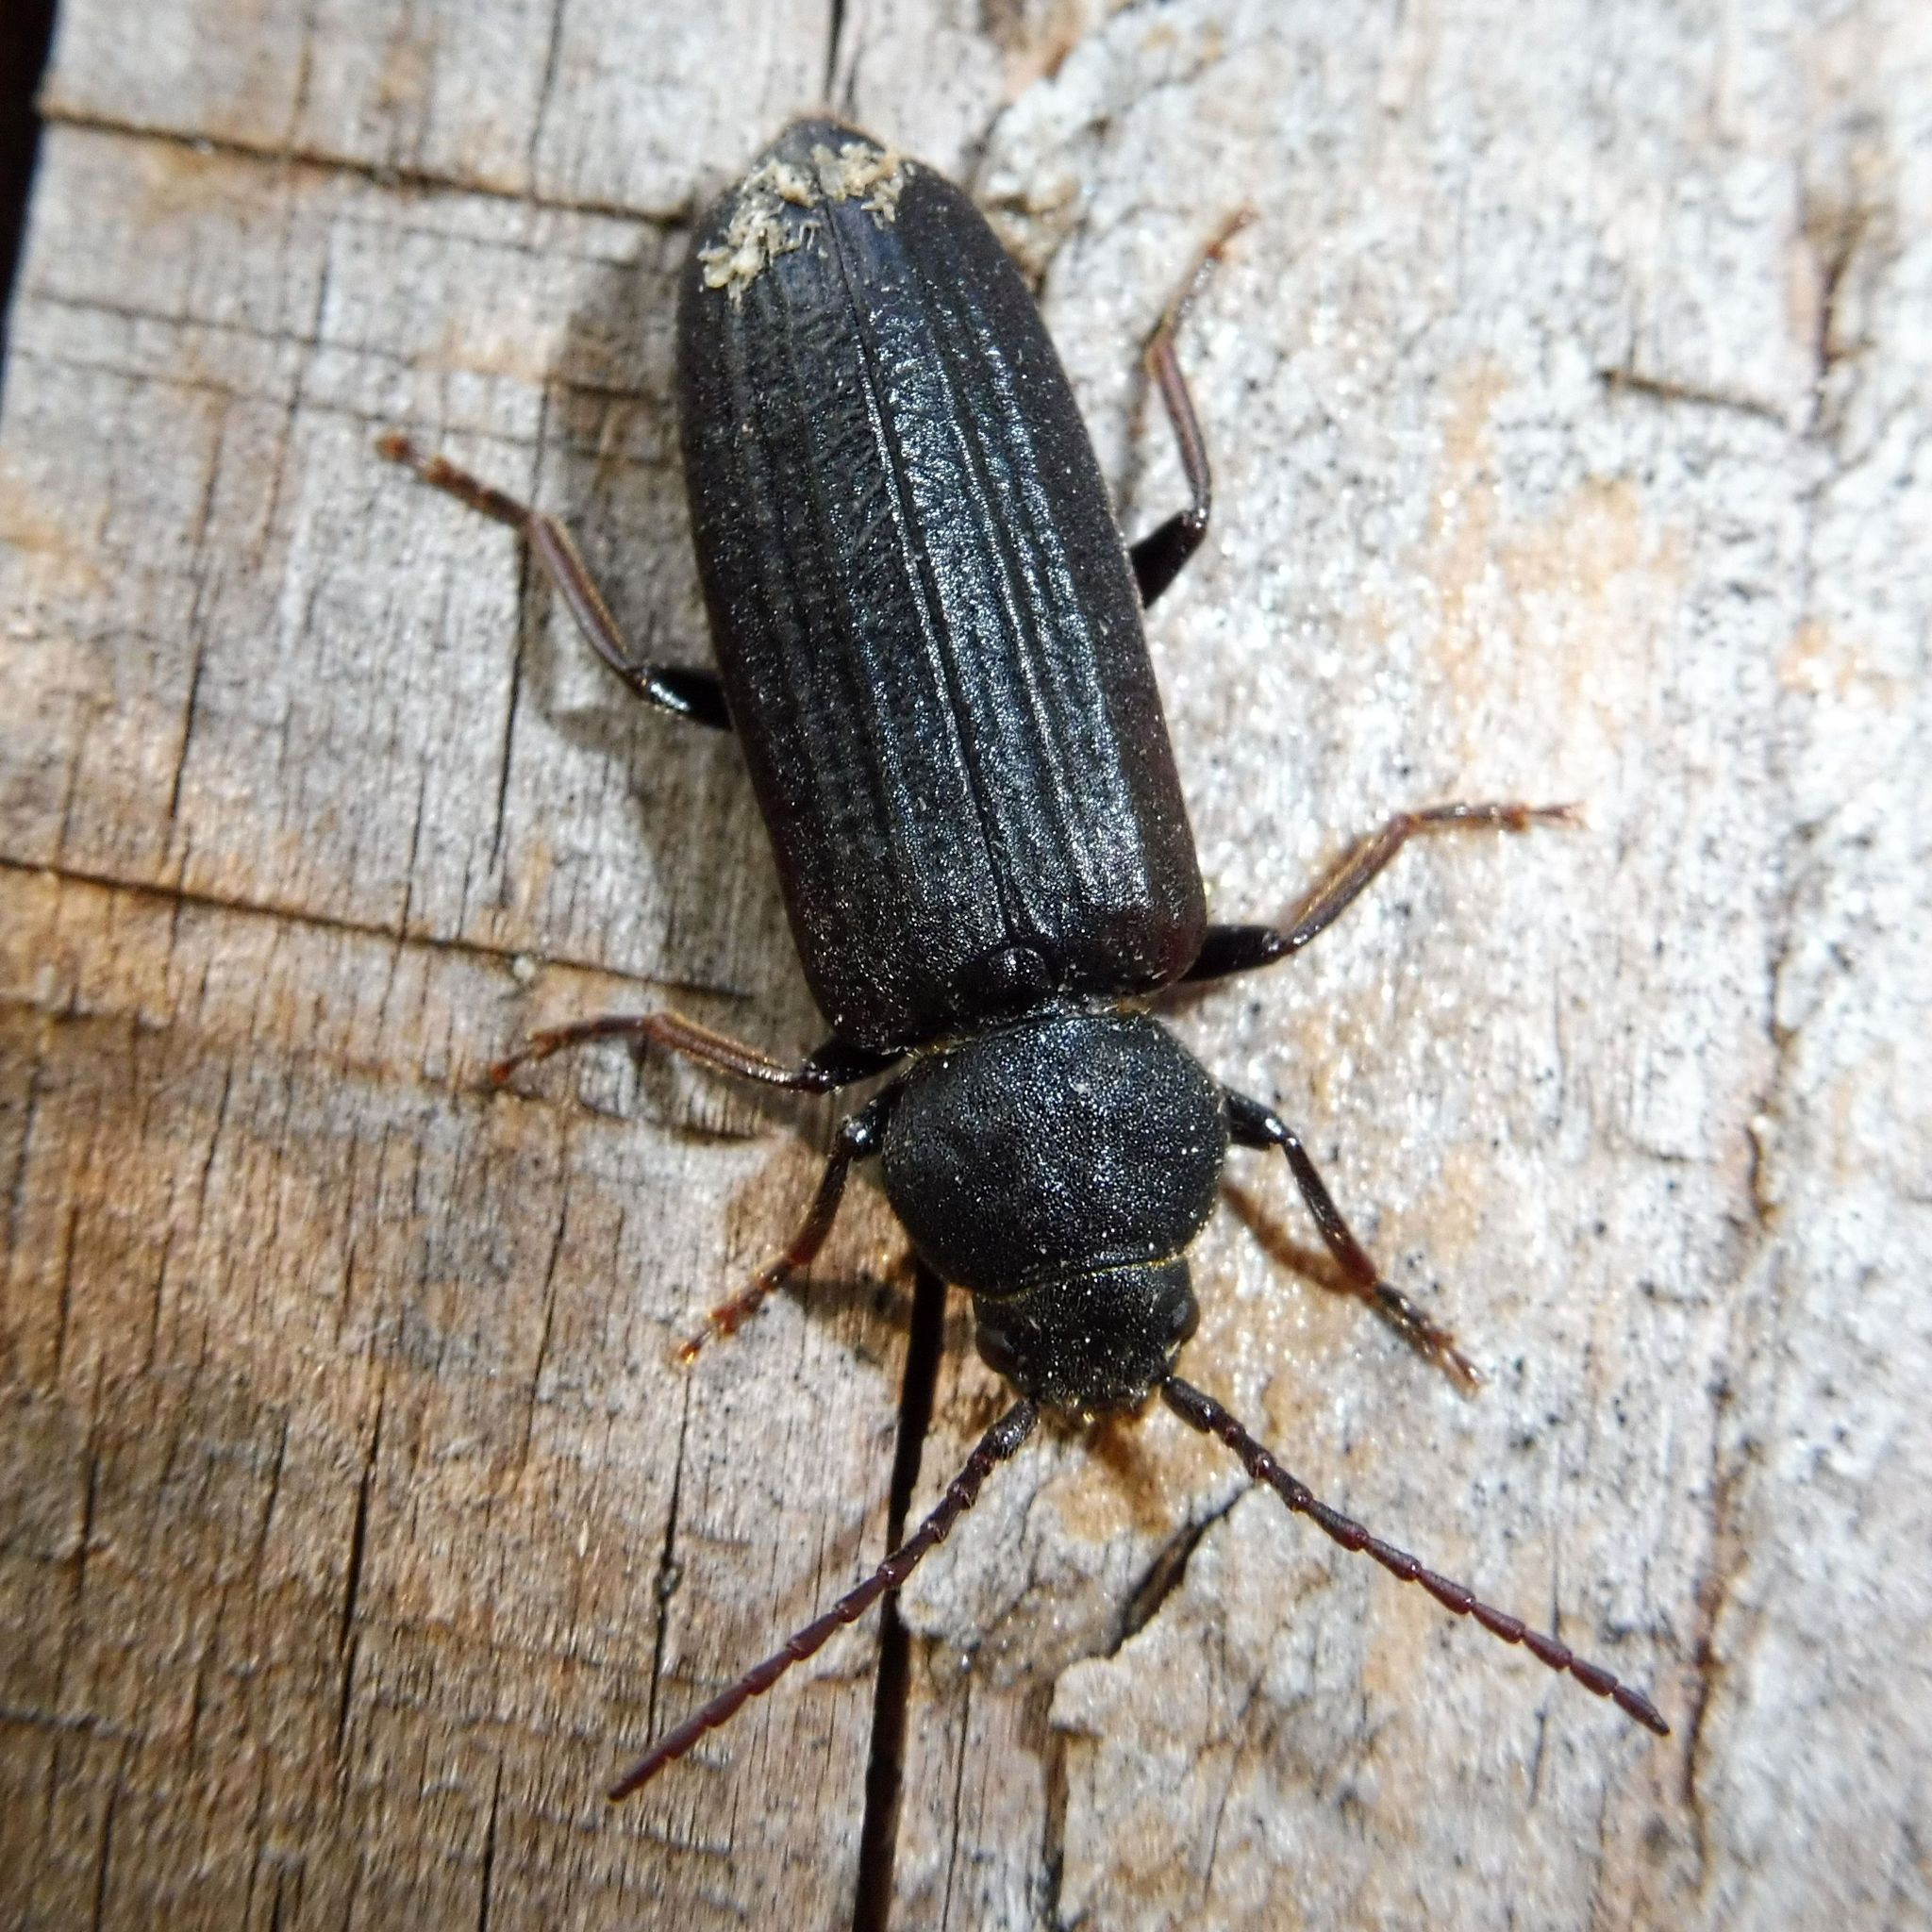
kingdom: Animalia
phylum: Arthropoda
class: Insecta
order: Coleoptera
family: Cerambycidae
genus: Asemum
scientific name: Asemum striatum
